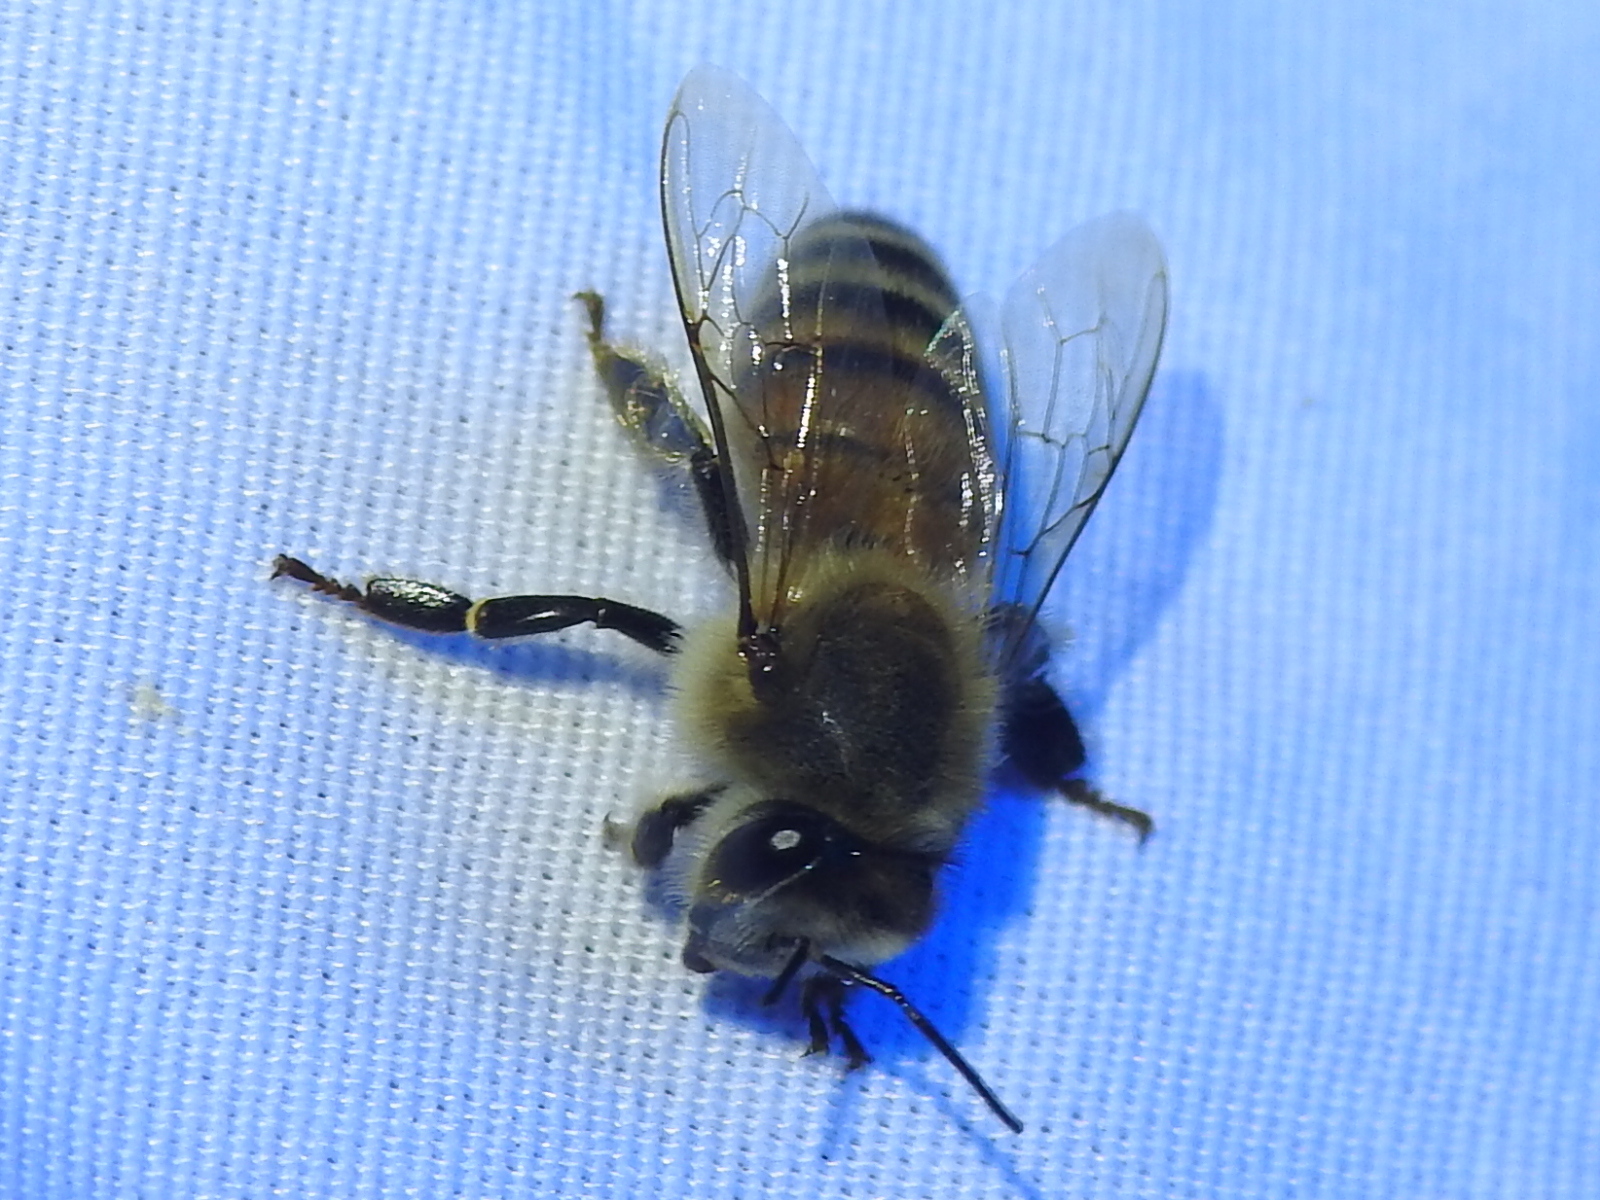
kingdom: Animalia
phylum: Arthropoda
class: Insecta
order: Hymenoptera
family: Apidae
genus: Apis
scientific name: Apis mellifera
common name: Honey bee
